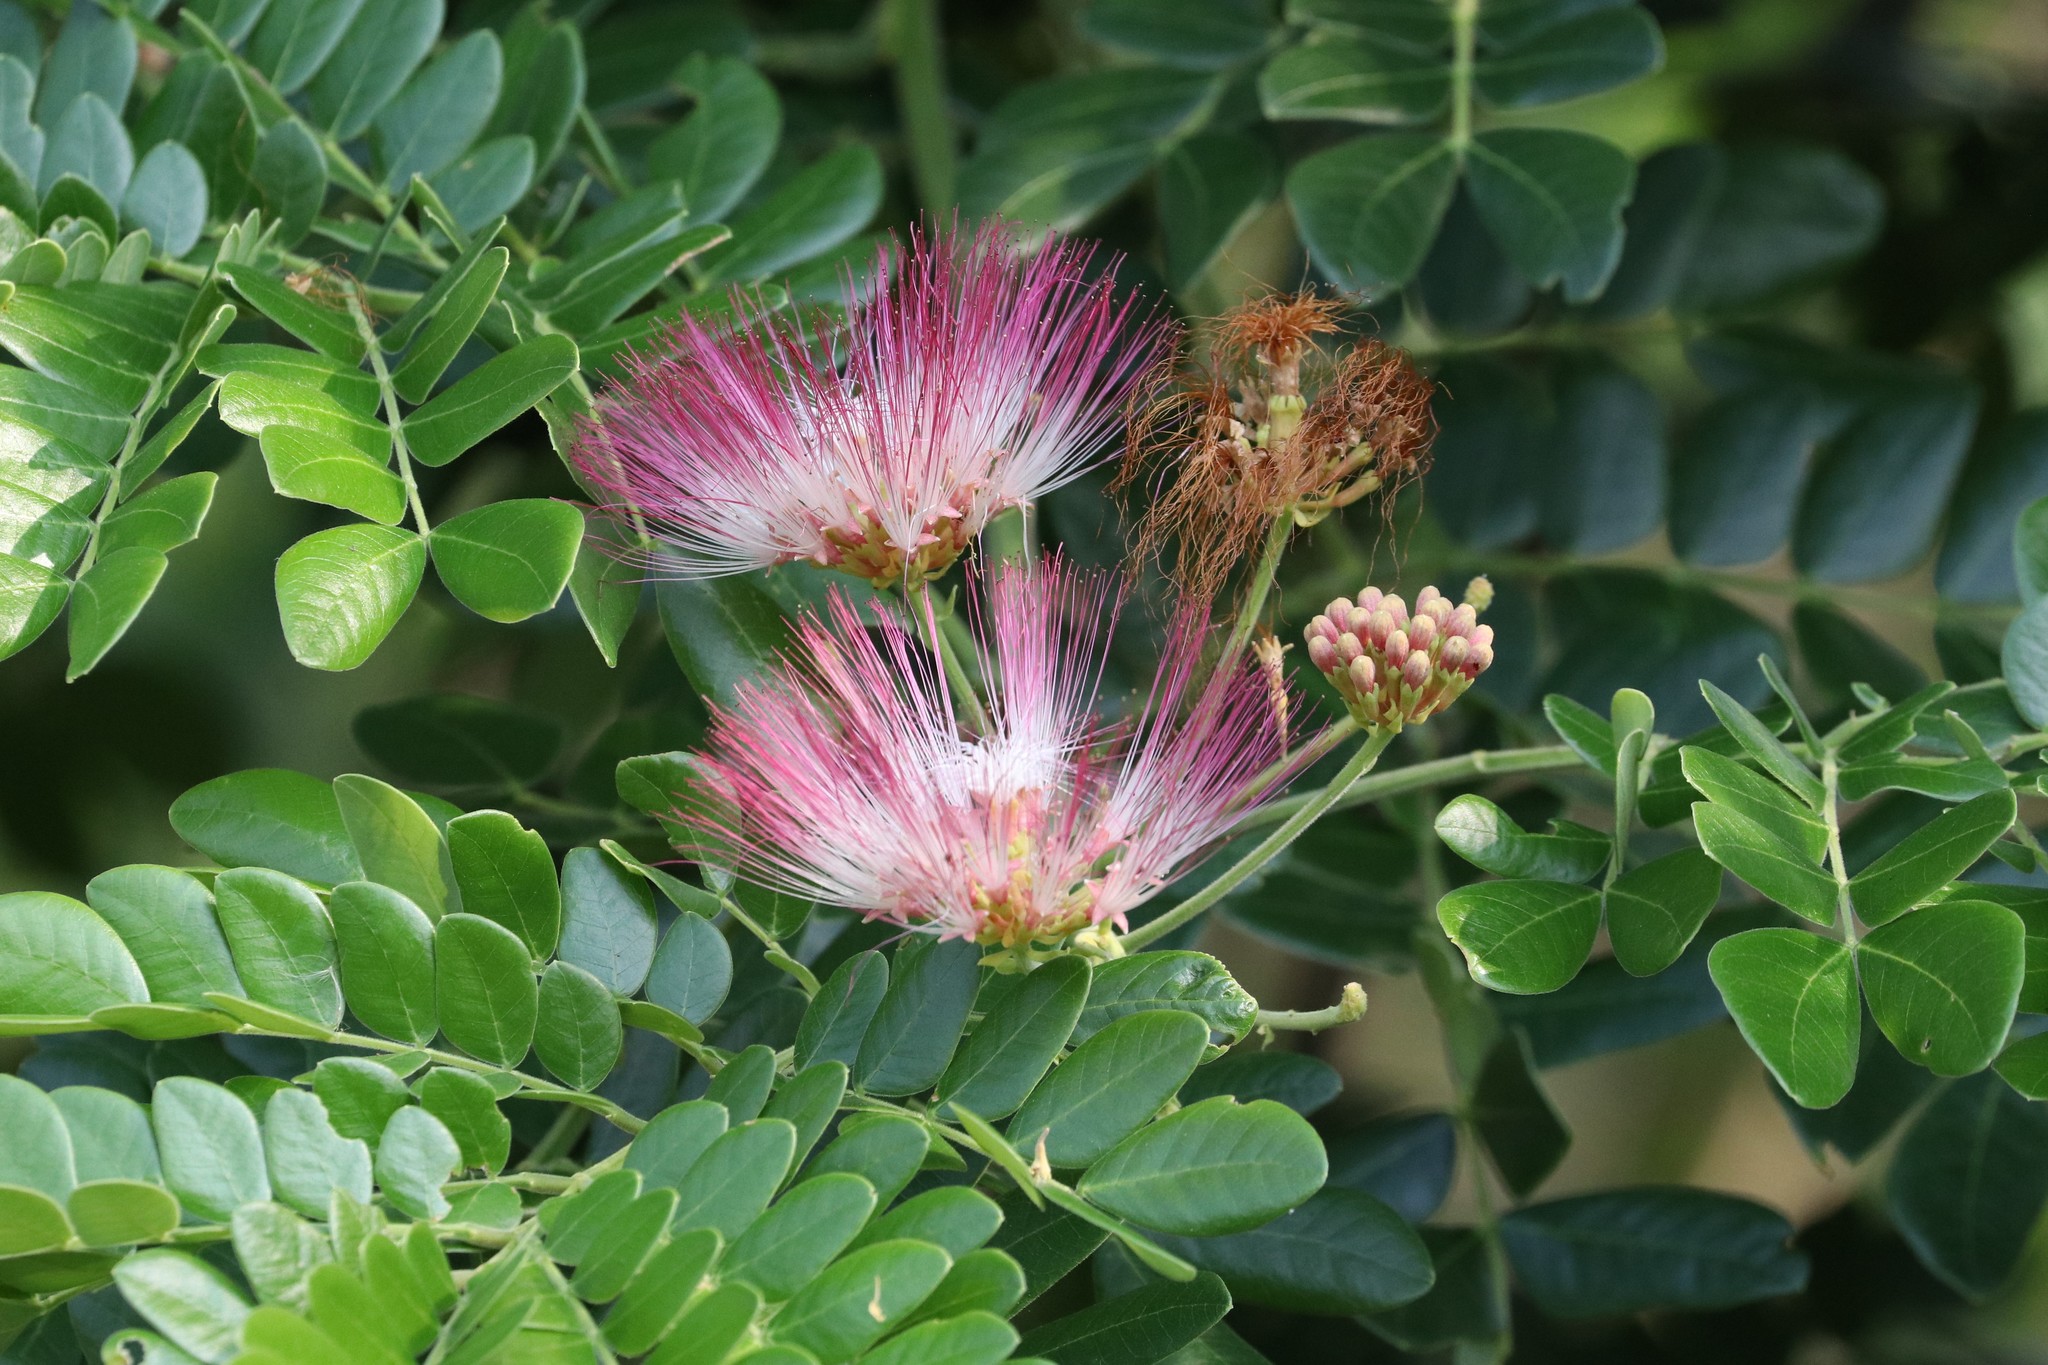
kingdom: Plantae
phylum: Tracheophyta
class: Magnoliopsida
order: Fabales
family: Fabaceae
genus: Samanea
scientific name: Samanea saman
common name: Raintree
